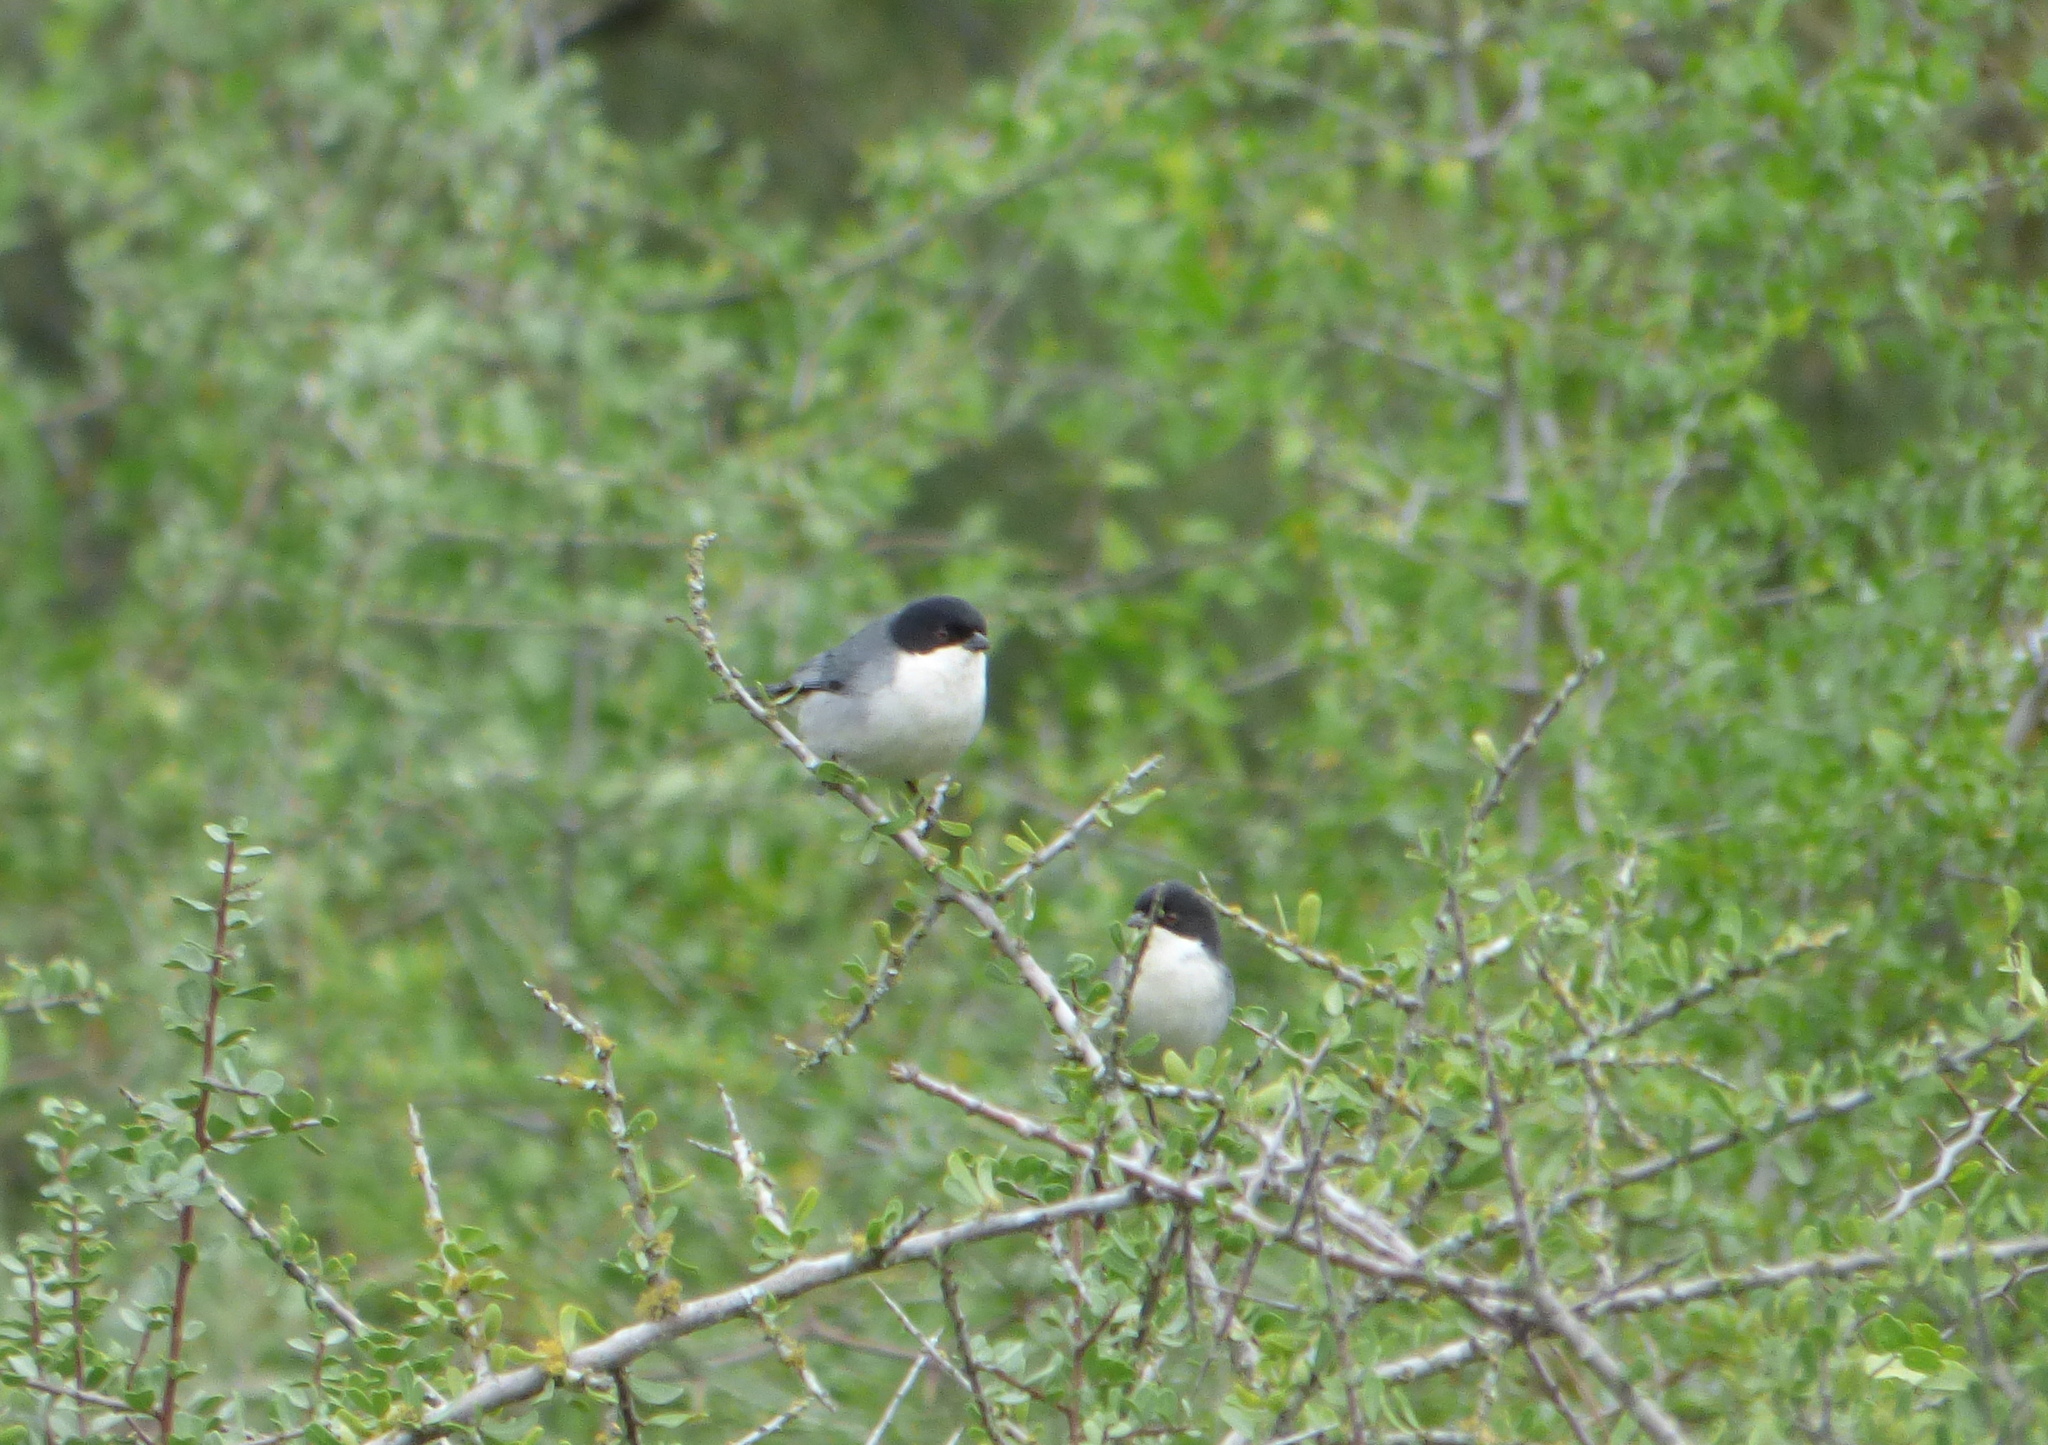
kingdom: Animalia
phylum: Chordata
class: Aves
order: Passeriformes
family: Thraupidae
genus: Microspingus
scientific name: Microspingus melanoleucus
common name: Black-capped warbling-finch
